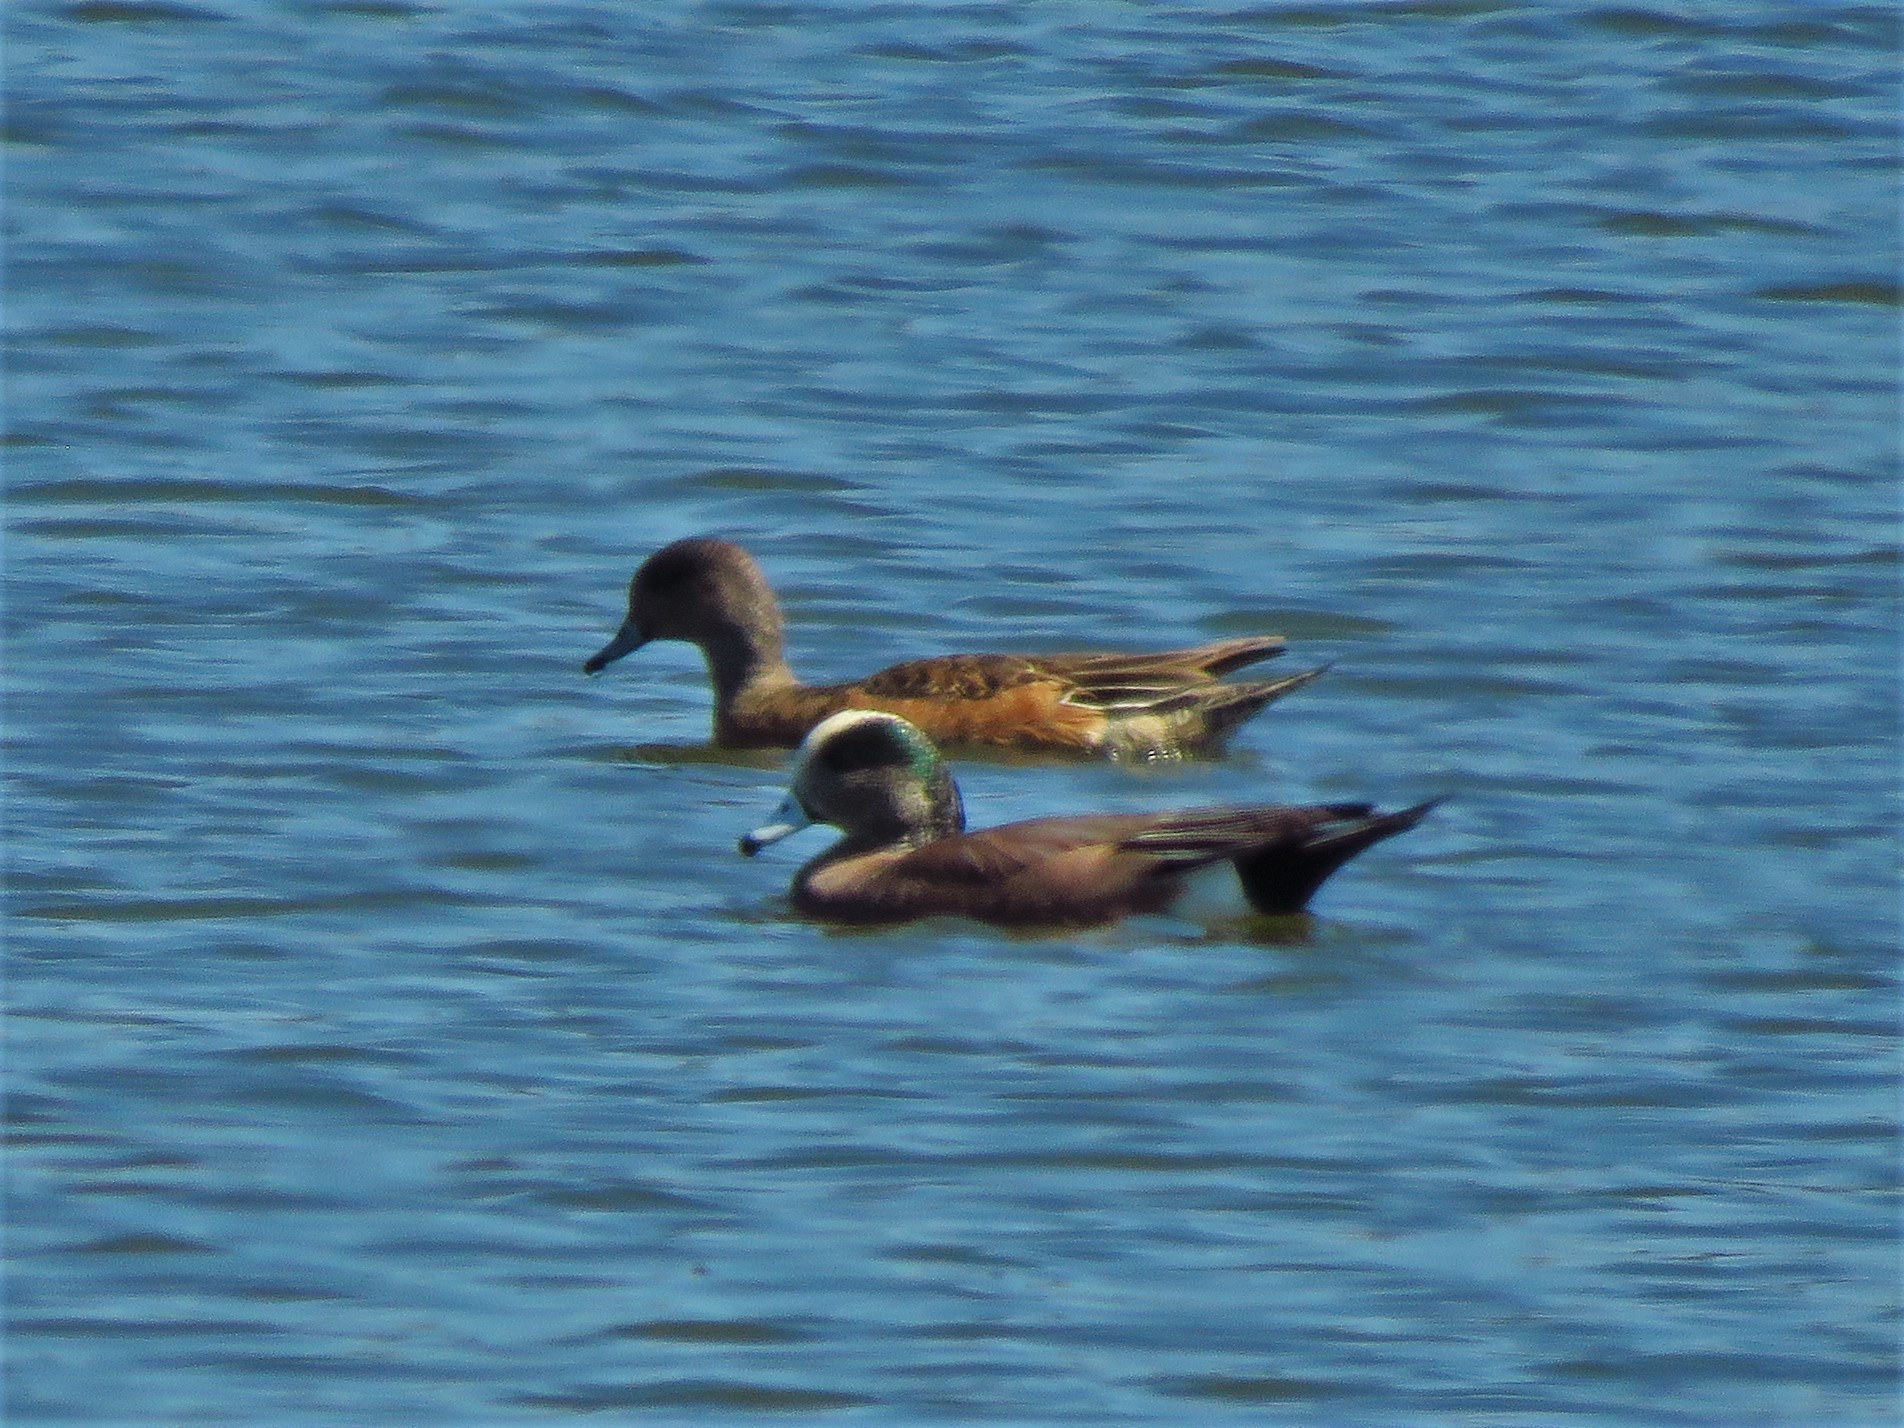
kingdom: Animalia
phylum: Chordata
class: Aves
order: Anseriformes
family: Anatidae
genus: Mareca
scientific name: Mareca americana
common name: American wigeon
